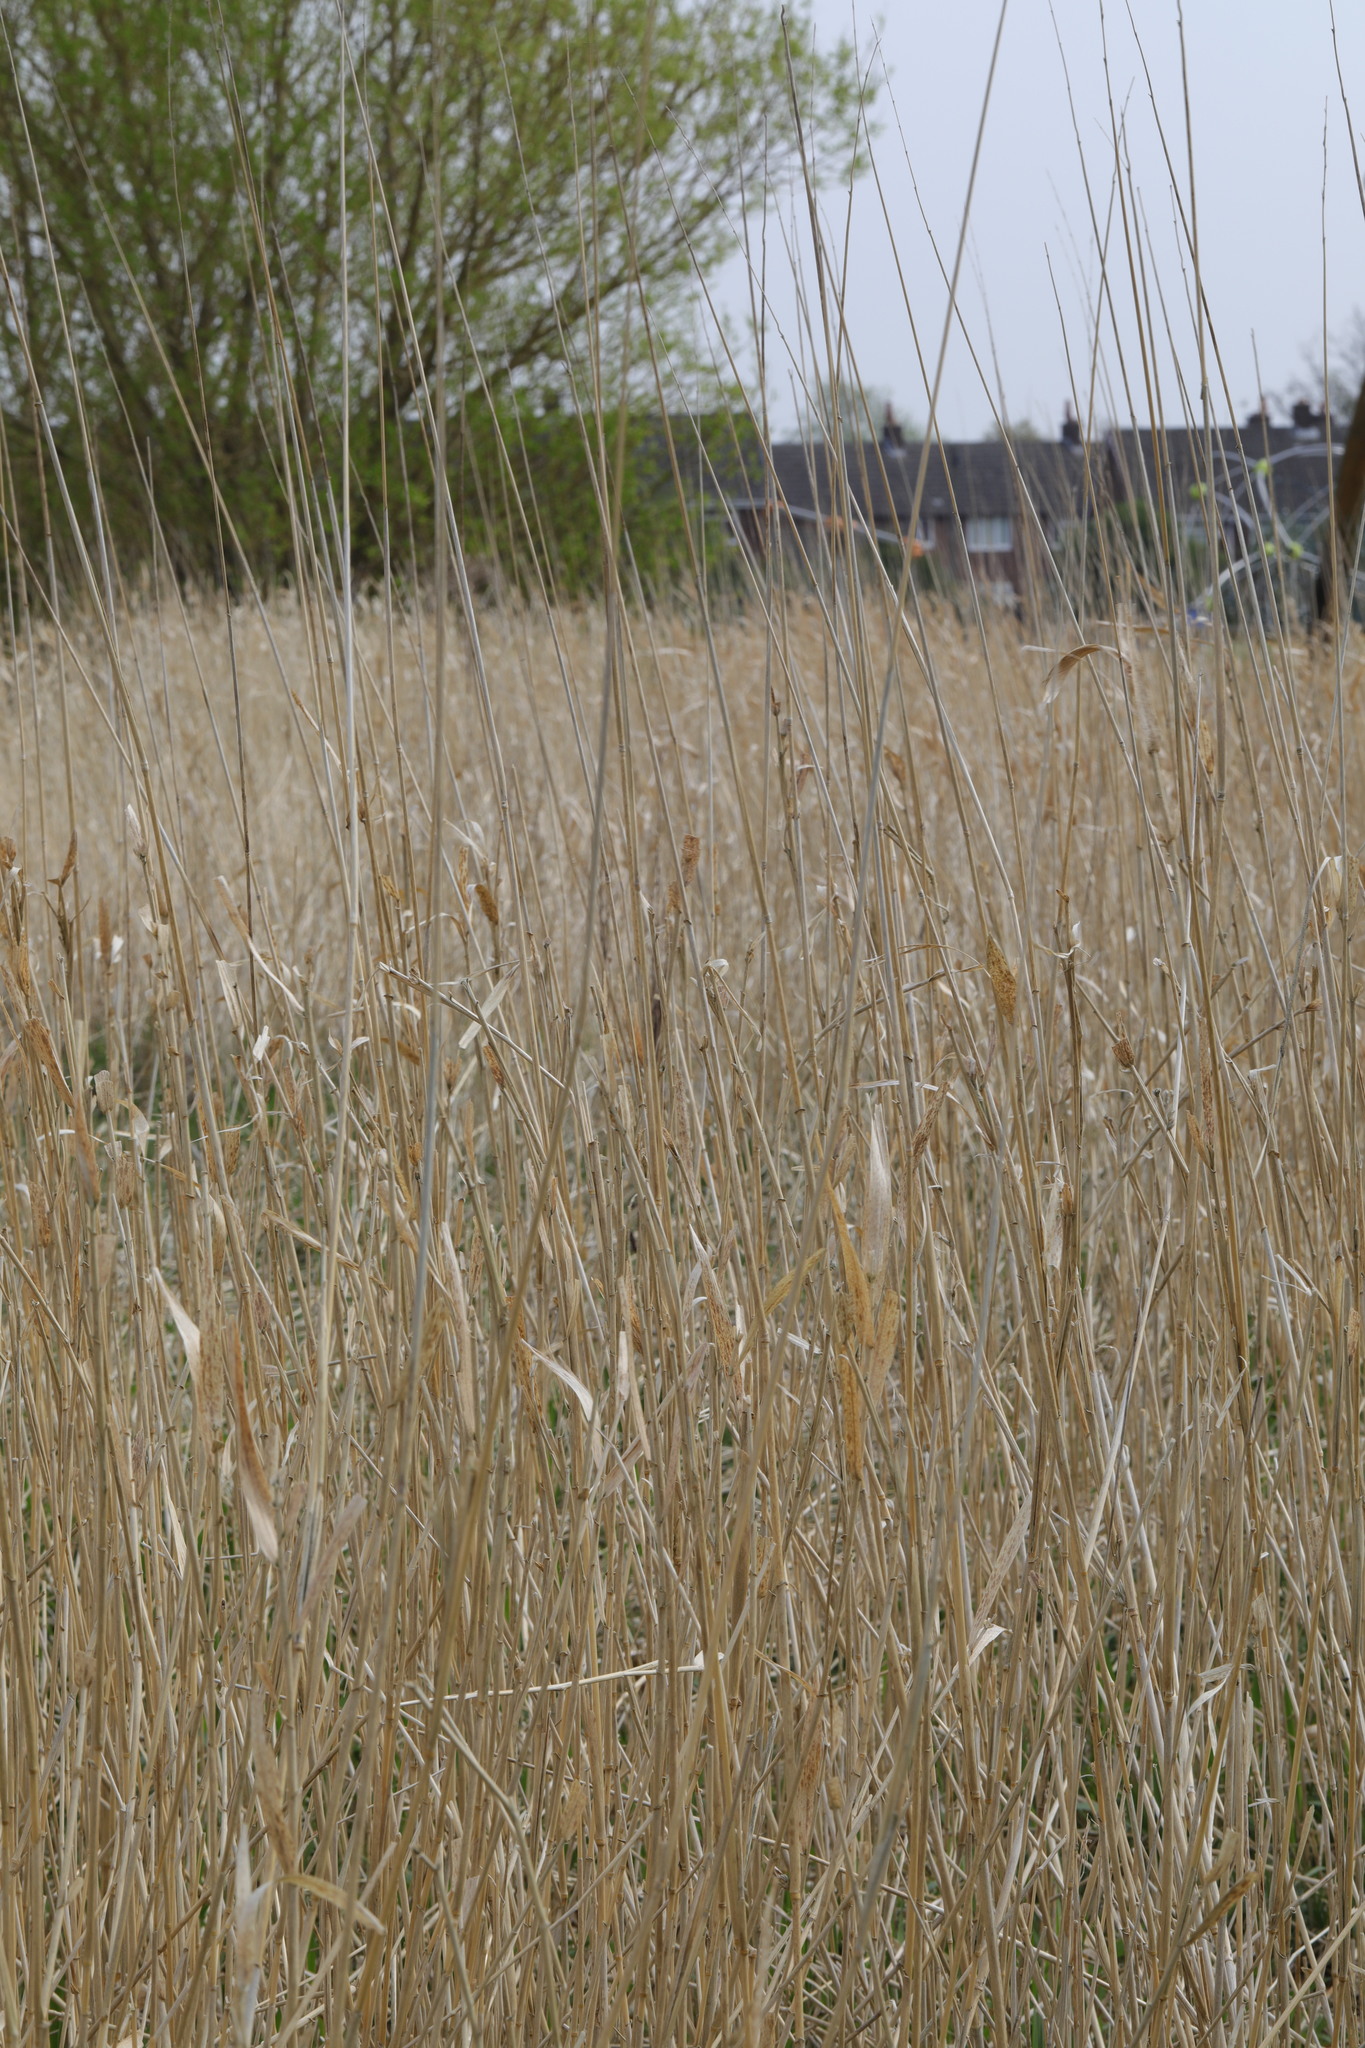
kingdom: Plantae
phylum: Tracheophyta
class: Liliopsida
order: Poales
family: Poaceae
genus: Phalaris
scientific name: Phalaris arundinacea
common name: Reed canary-grass
